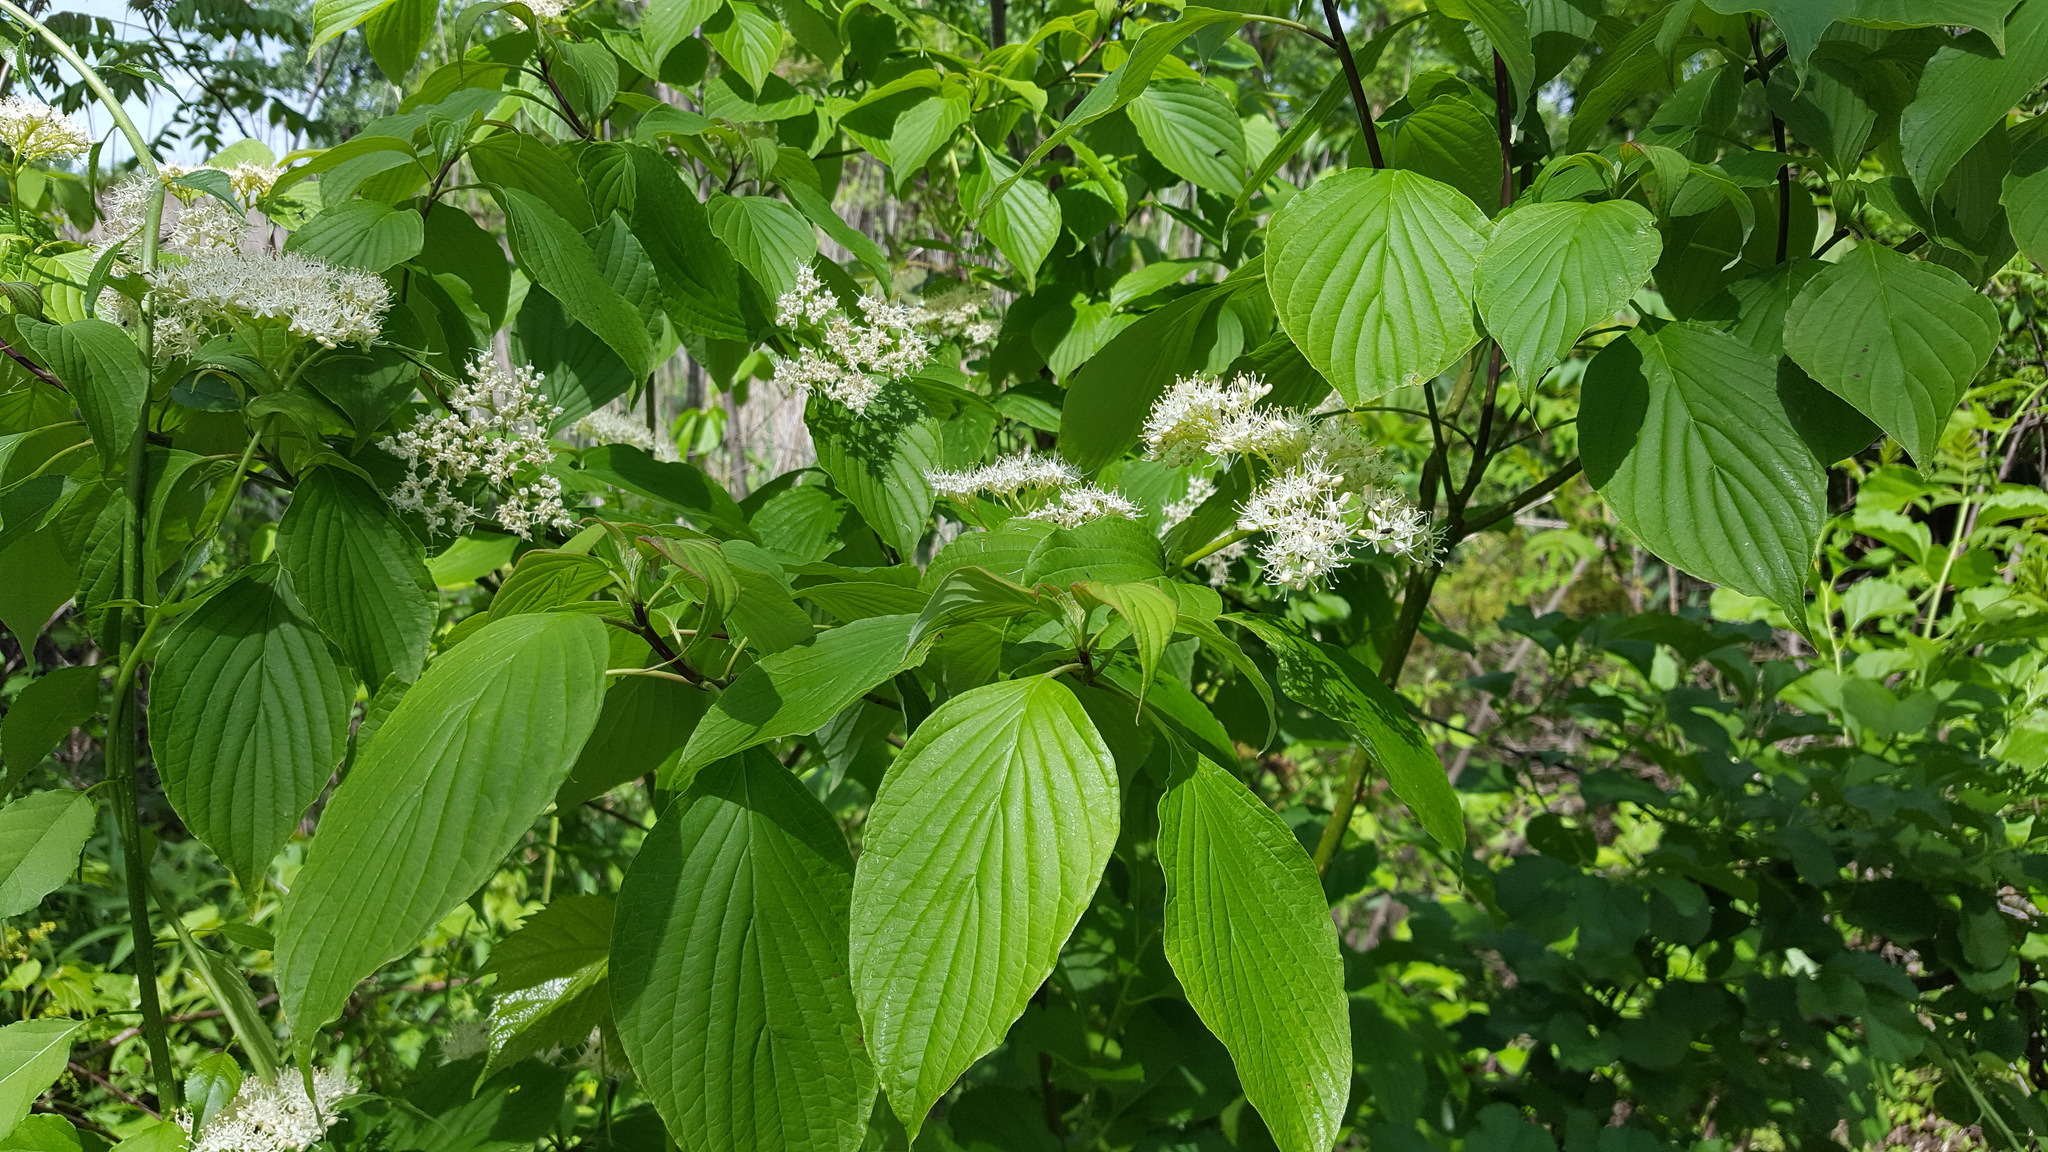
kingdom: Plantae
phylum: Tracheophyta
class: Magnoliopsida
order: Cornales
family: Cornaceae
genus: Cornus
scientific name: Cornus alternifolia
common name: Pagoda dogwood
